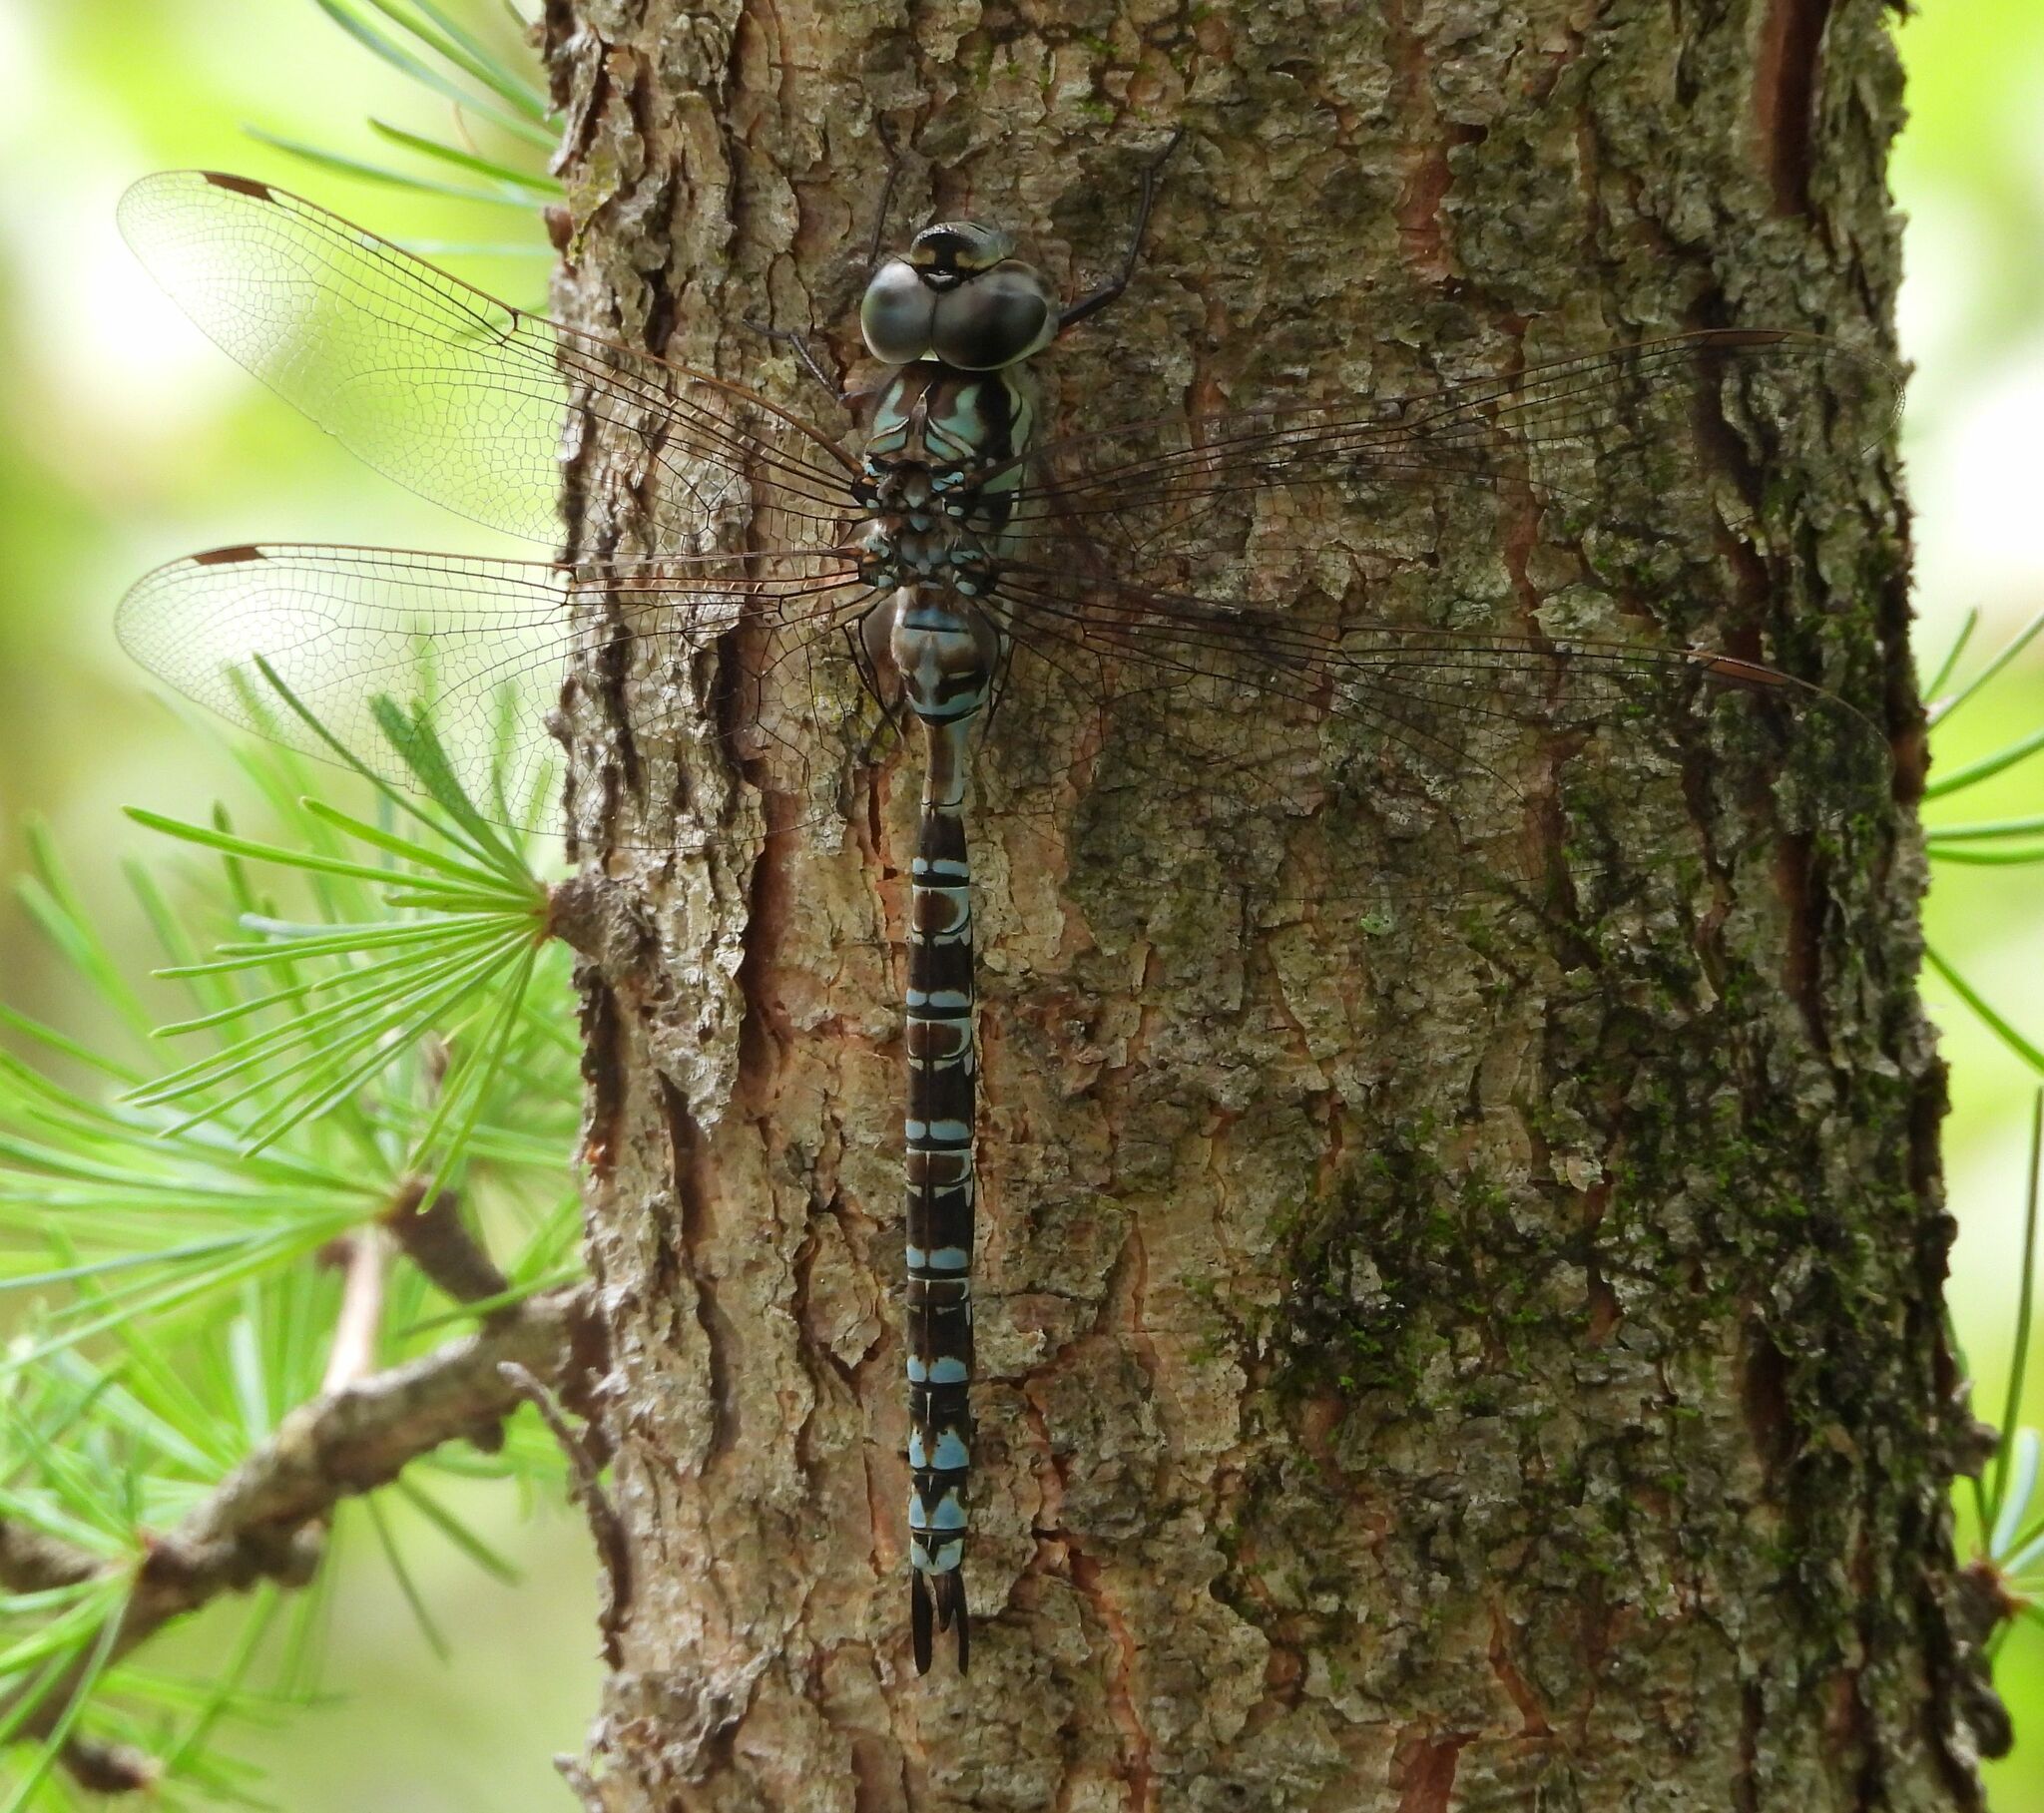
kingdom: Animalia
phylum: Arthropoda
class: Insecta
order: Odonata
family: Aeshnidae
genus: Aeshna
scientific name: Aeshna clepsydra
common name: Mottled darner
